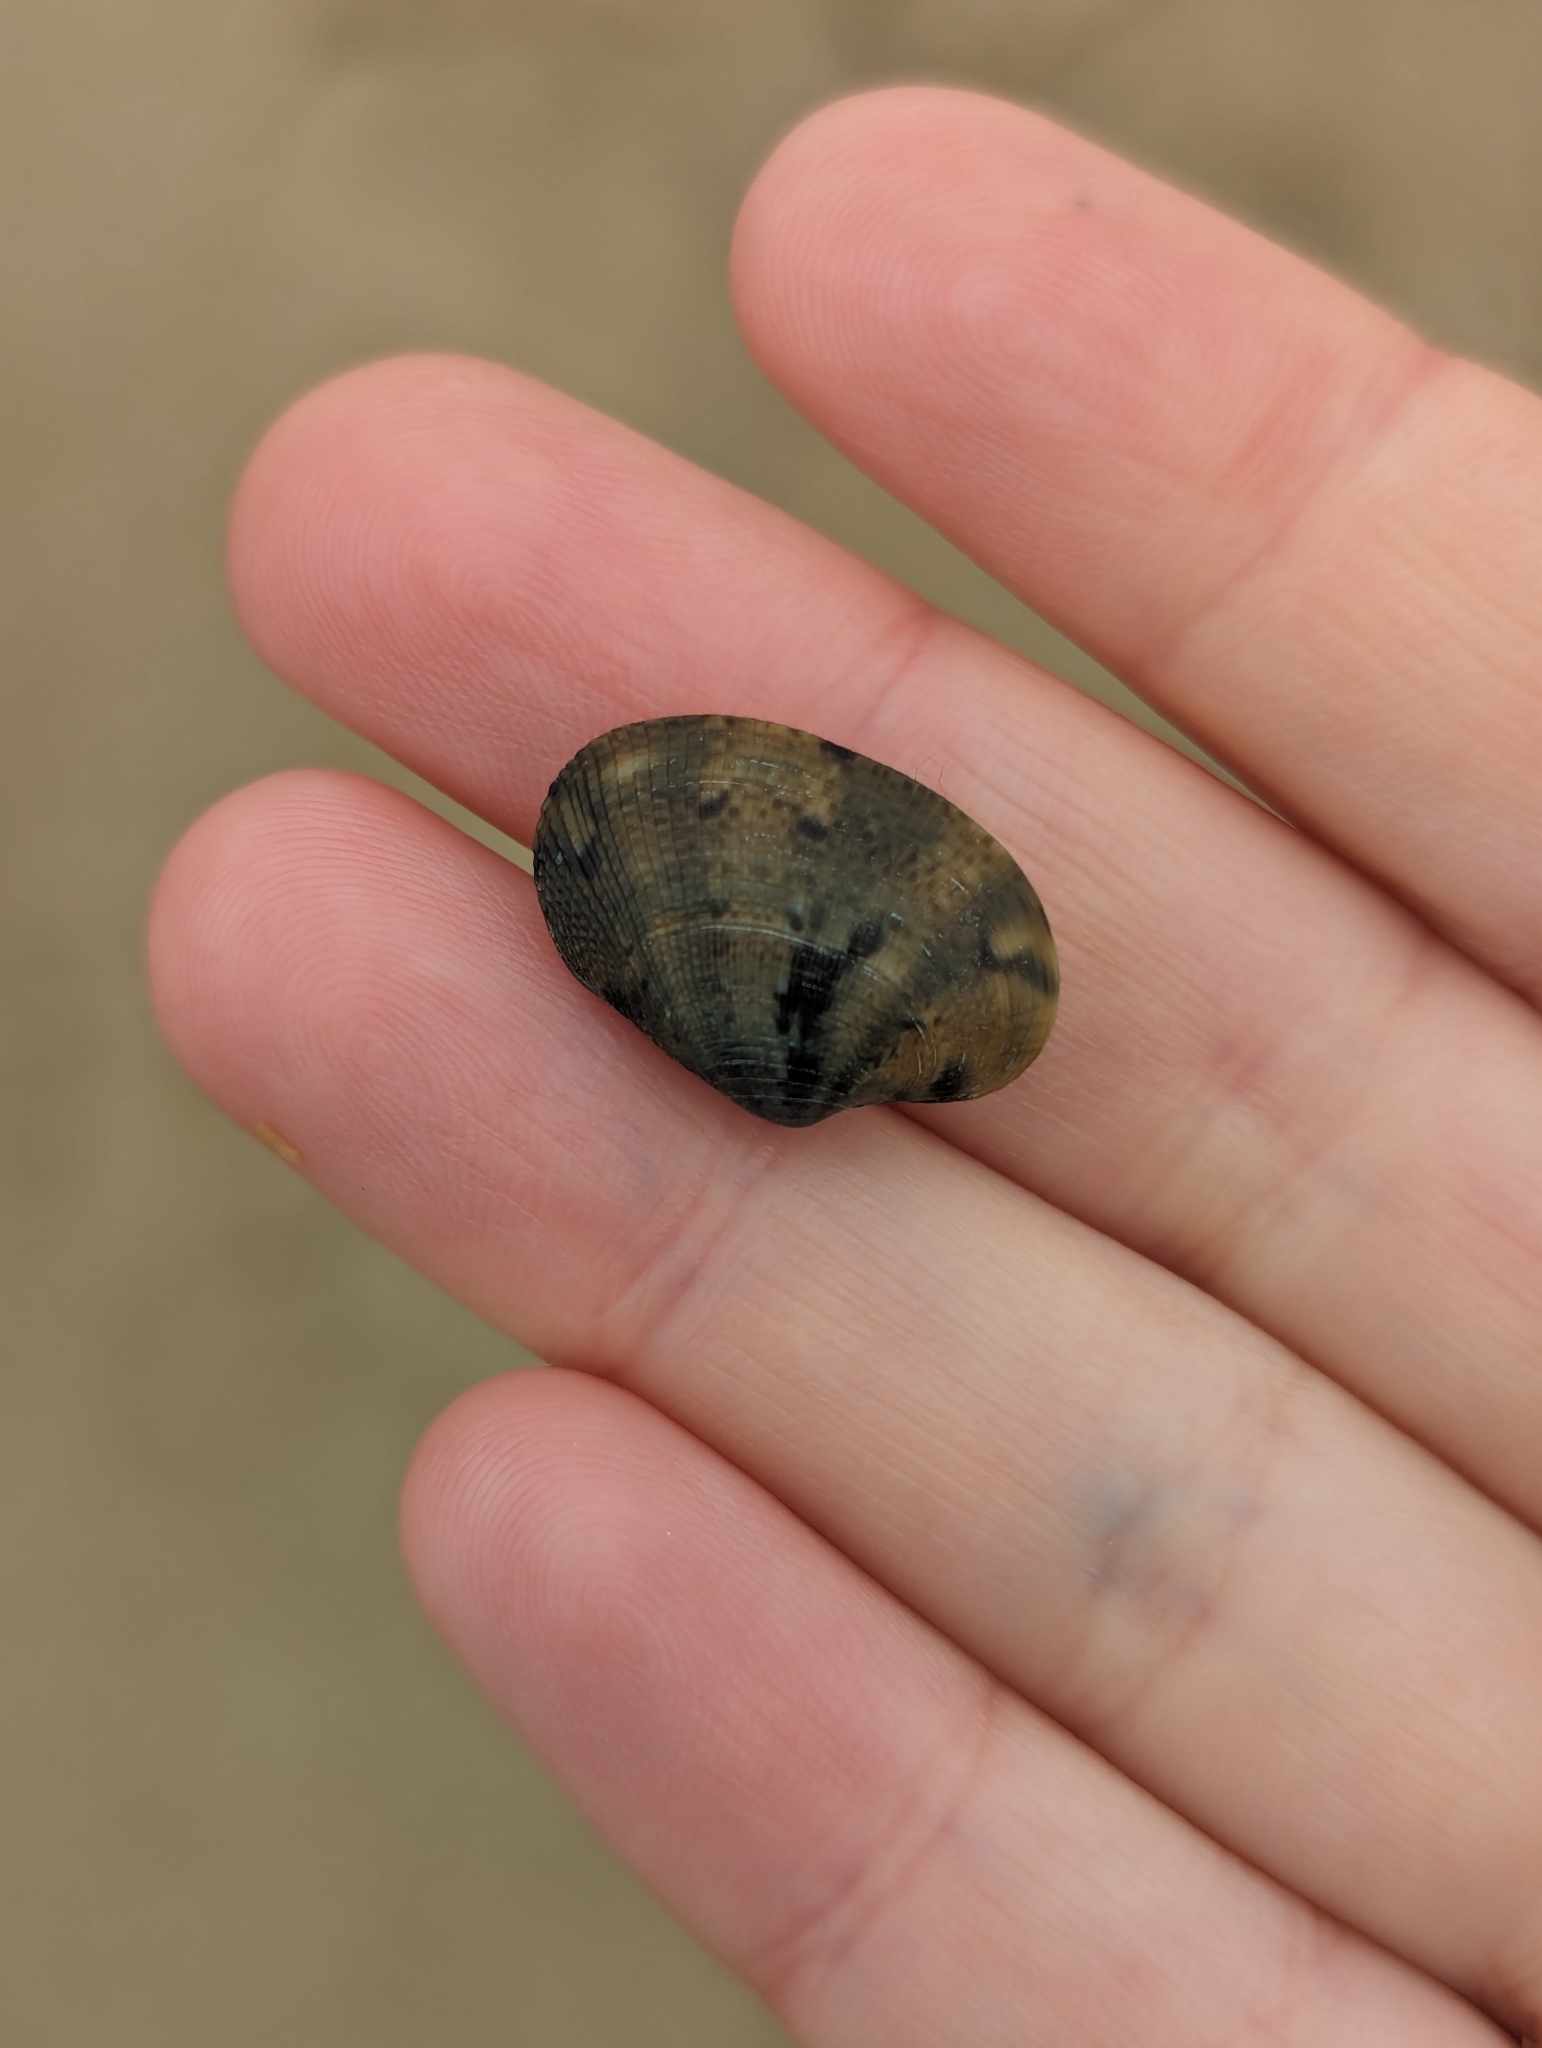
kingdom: Animalia
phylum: Mollusca
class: Bivalvia
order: Venerida
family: Veneridae
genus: Ruditapes
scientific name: Ruditapes philippinarum
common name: Manila clam
